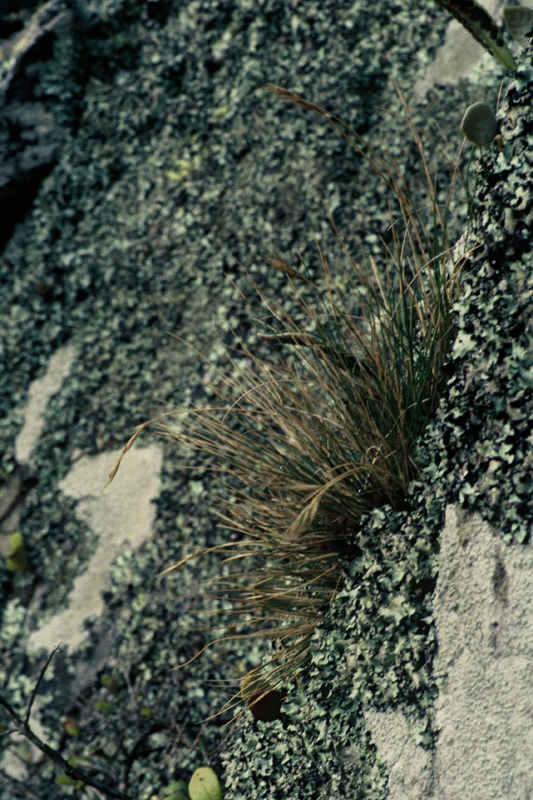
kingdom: Plantae
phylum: Tracheophyta
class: Liliopsida
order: Poales
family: Poaceae
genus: Rytidosperma
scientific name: Rytidosperma petrosum
